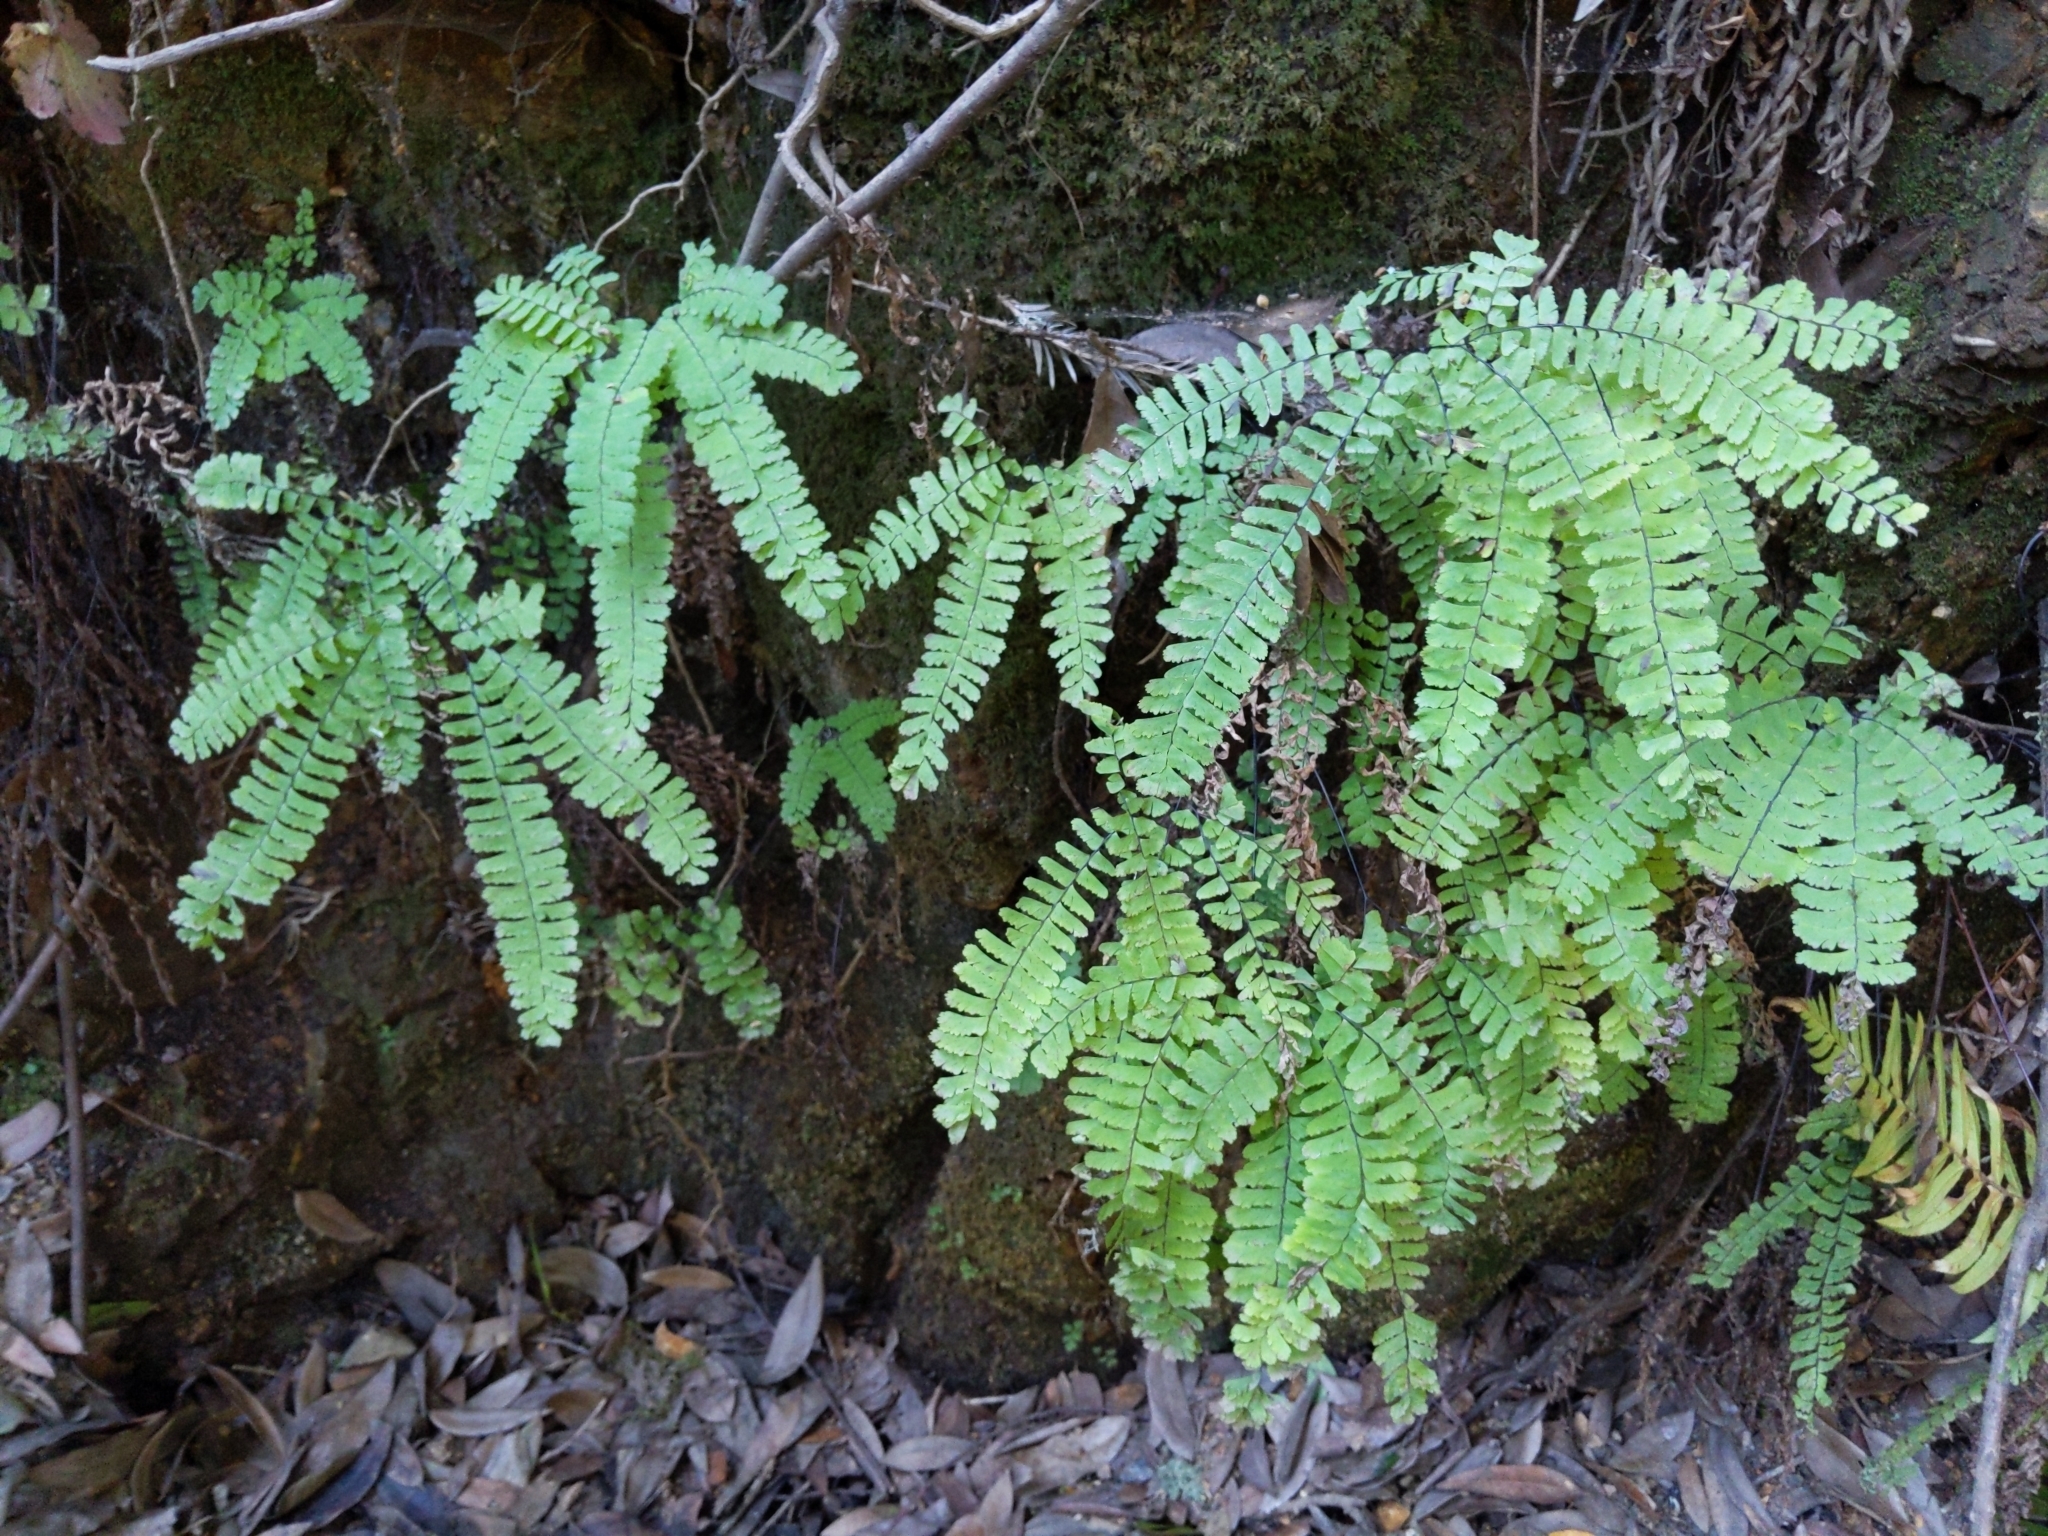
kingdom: Plantae
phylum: Tracheophyta
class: Polypodiopsida
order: Polypodiales
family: Pteridaceae
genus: Adiantum
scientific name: Adiantum aleuticum
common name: Aleutian maidenhair fern
